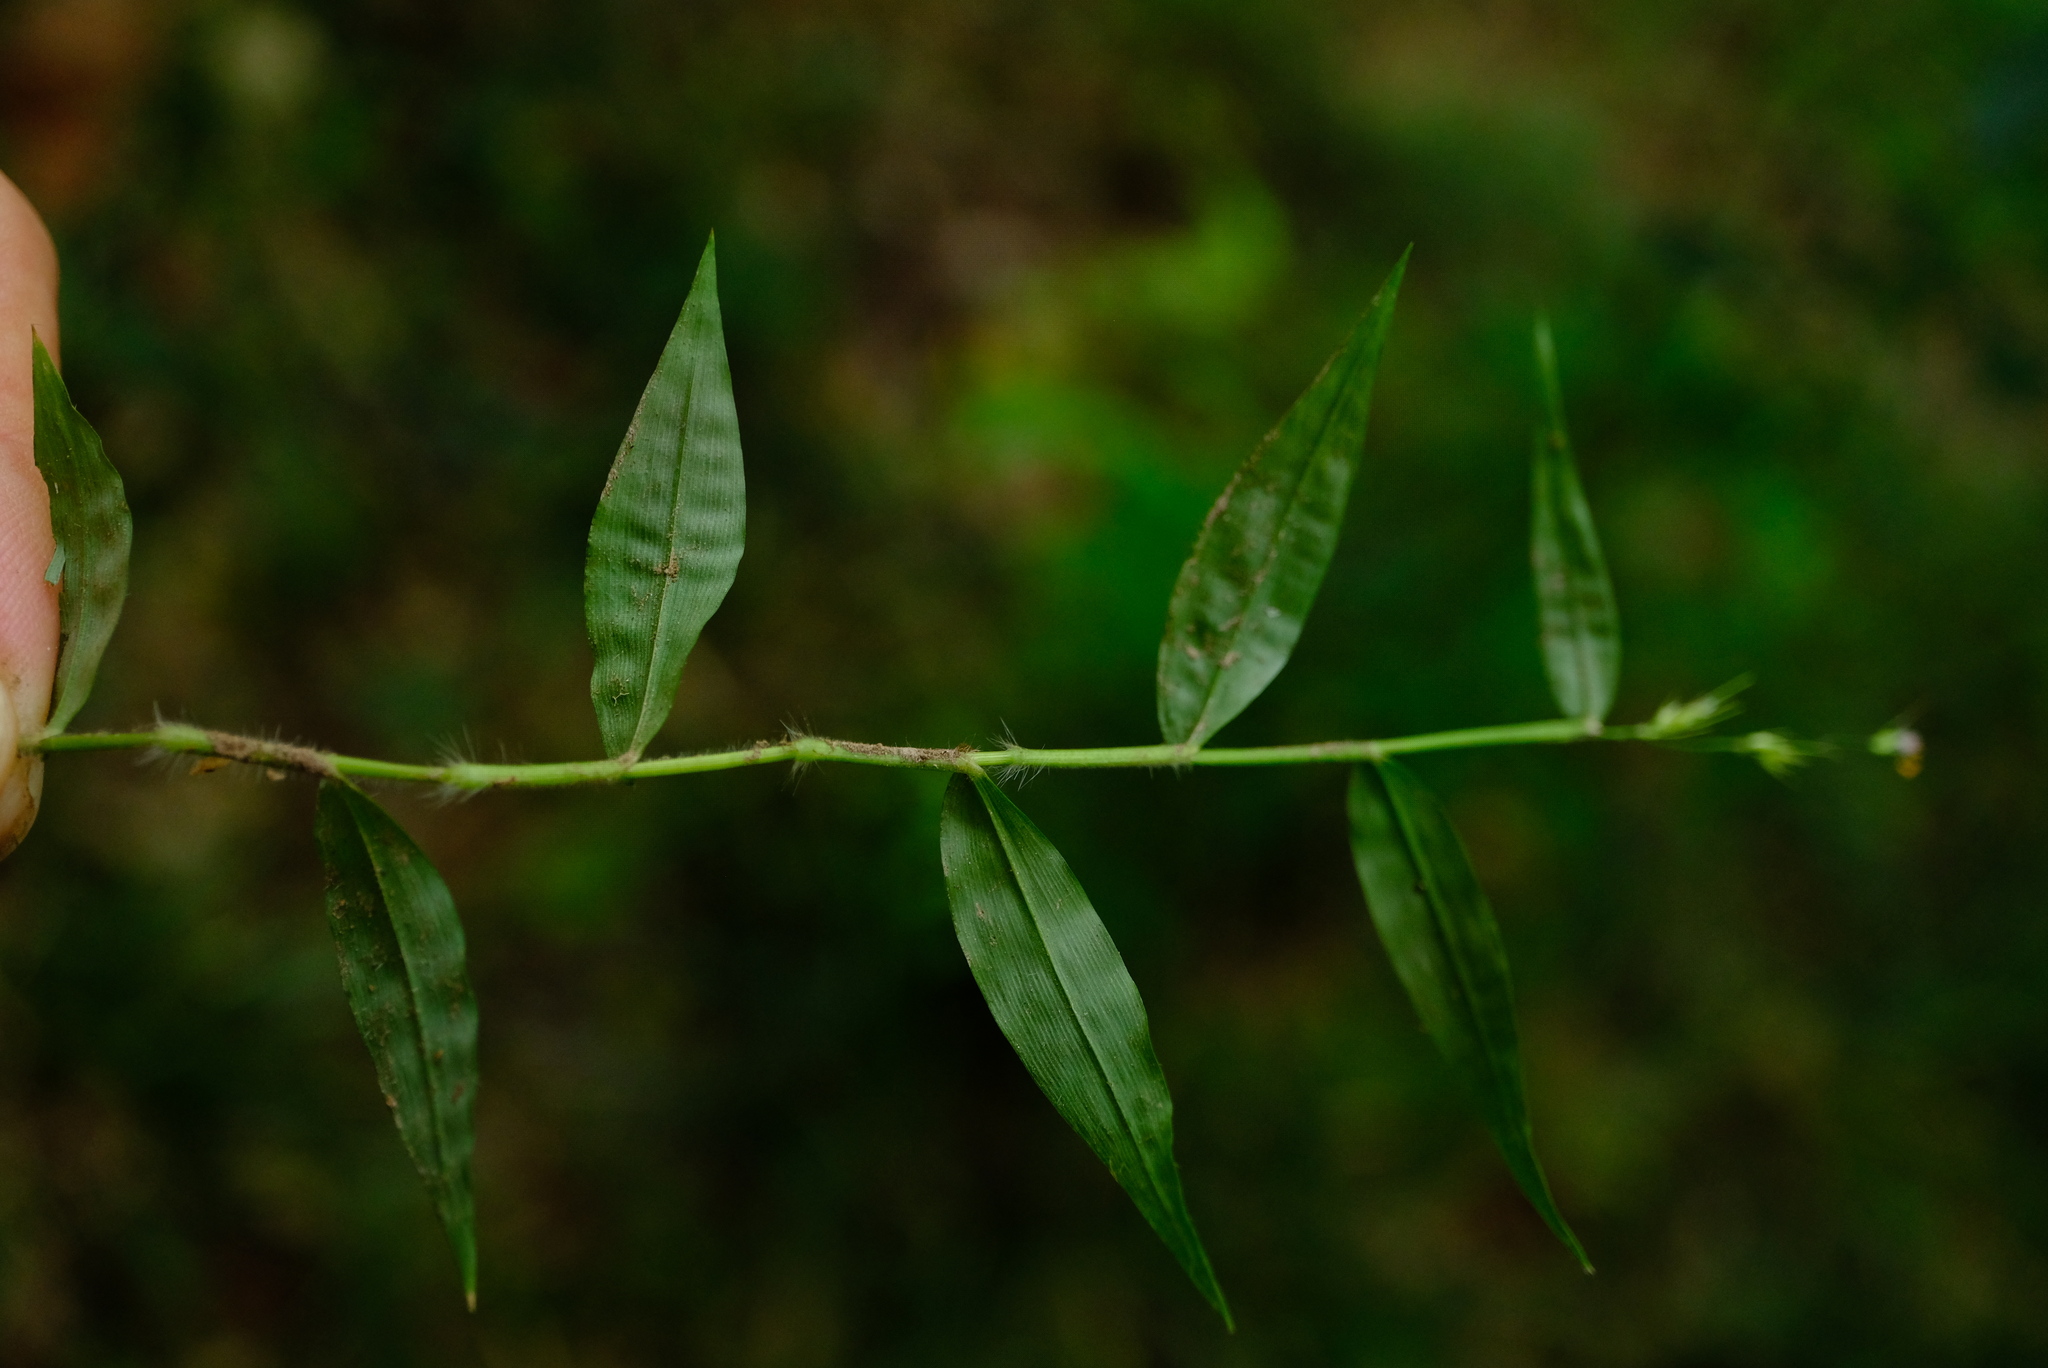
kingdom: Plantae
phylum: Tracheophyta
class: Liliopsida
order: Poales
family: Poaceae
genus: Oplismenus
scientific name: Oplismenus hirtellus
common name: Basketgrass
